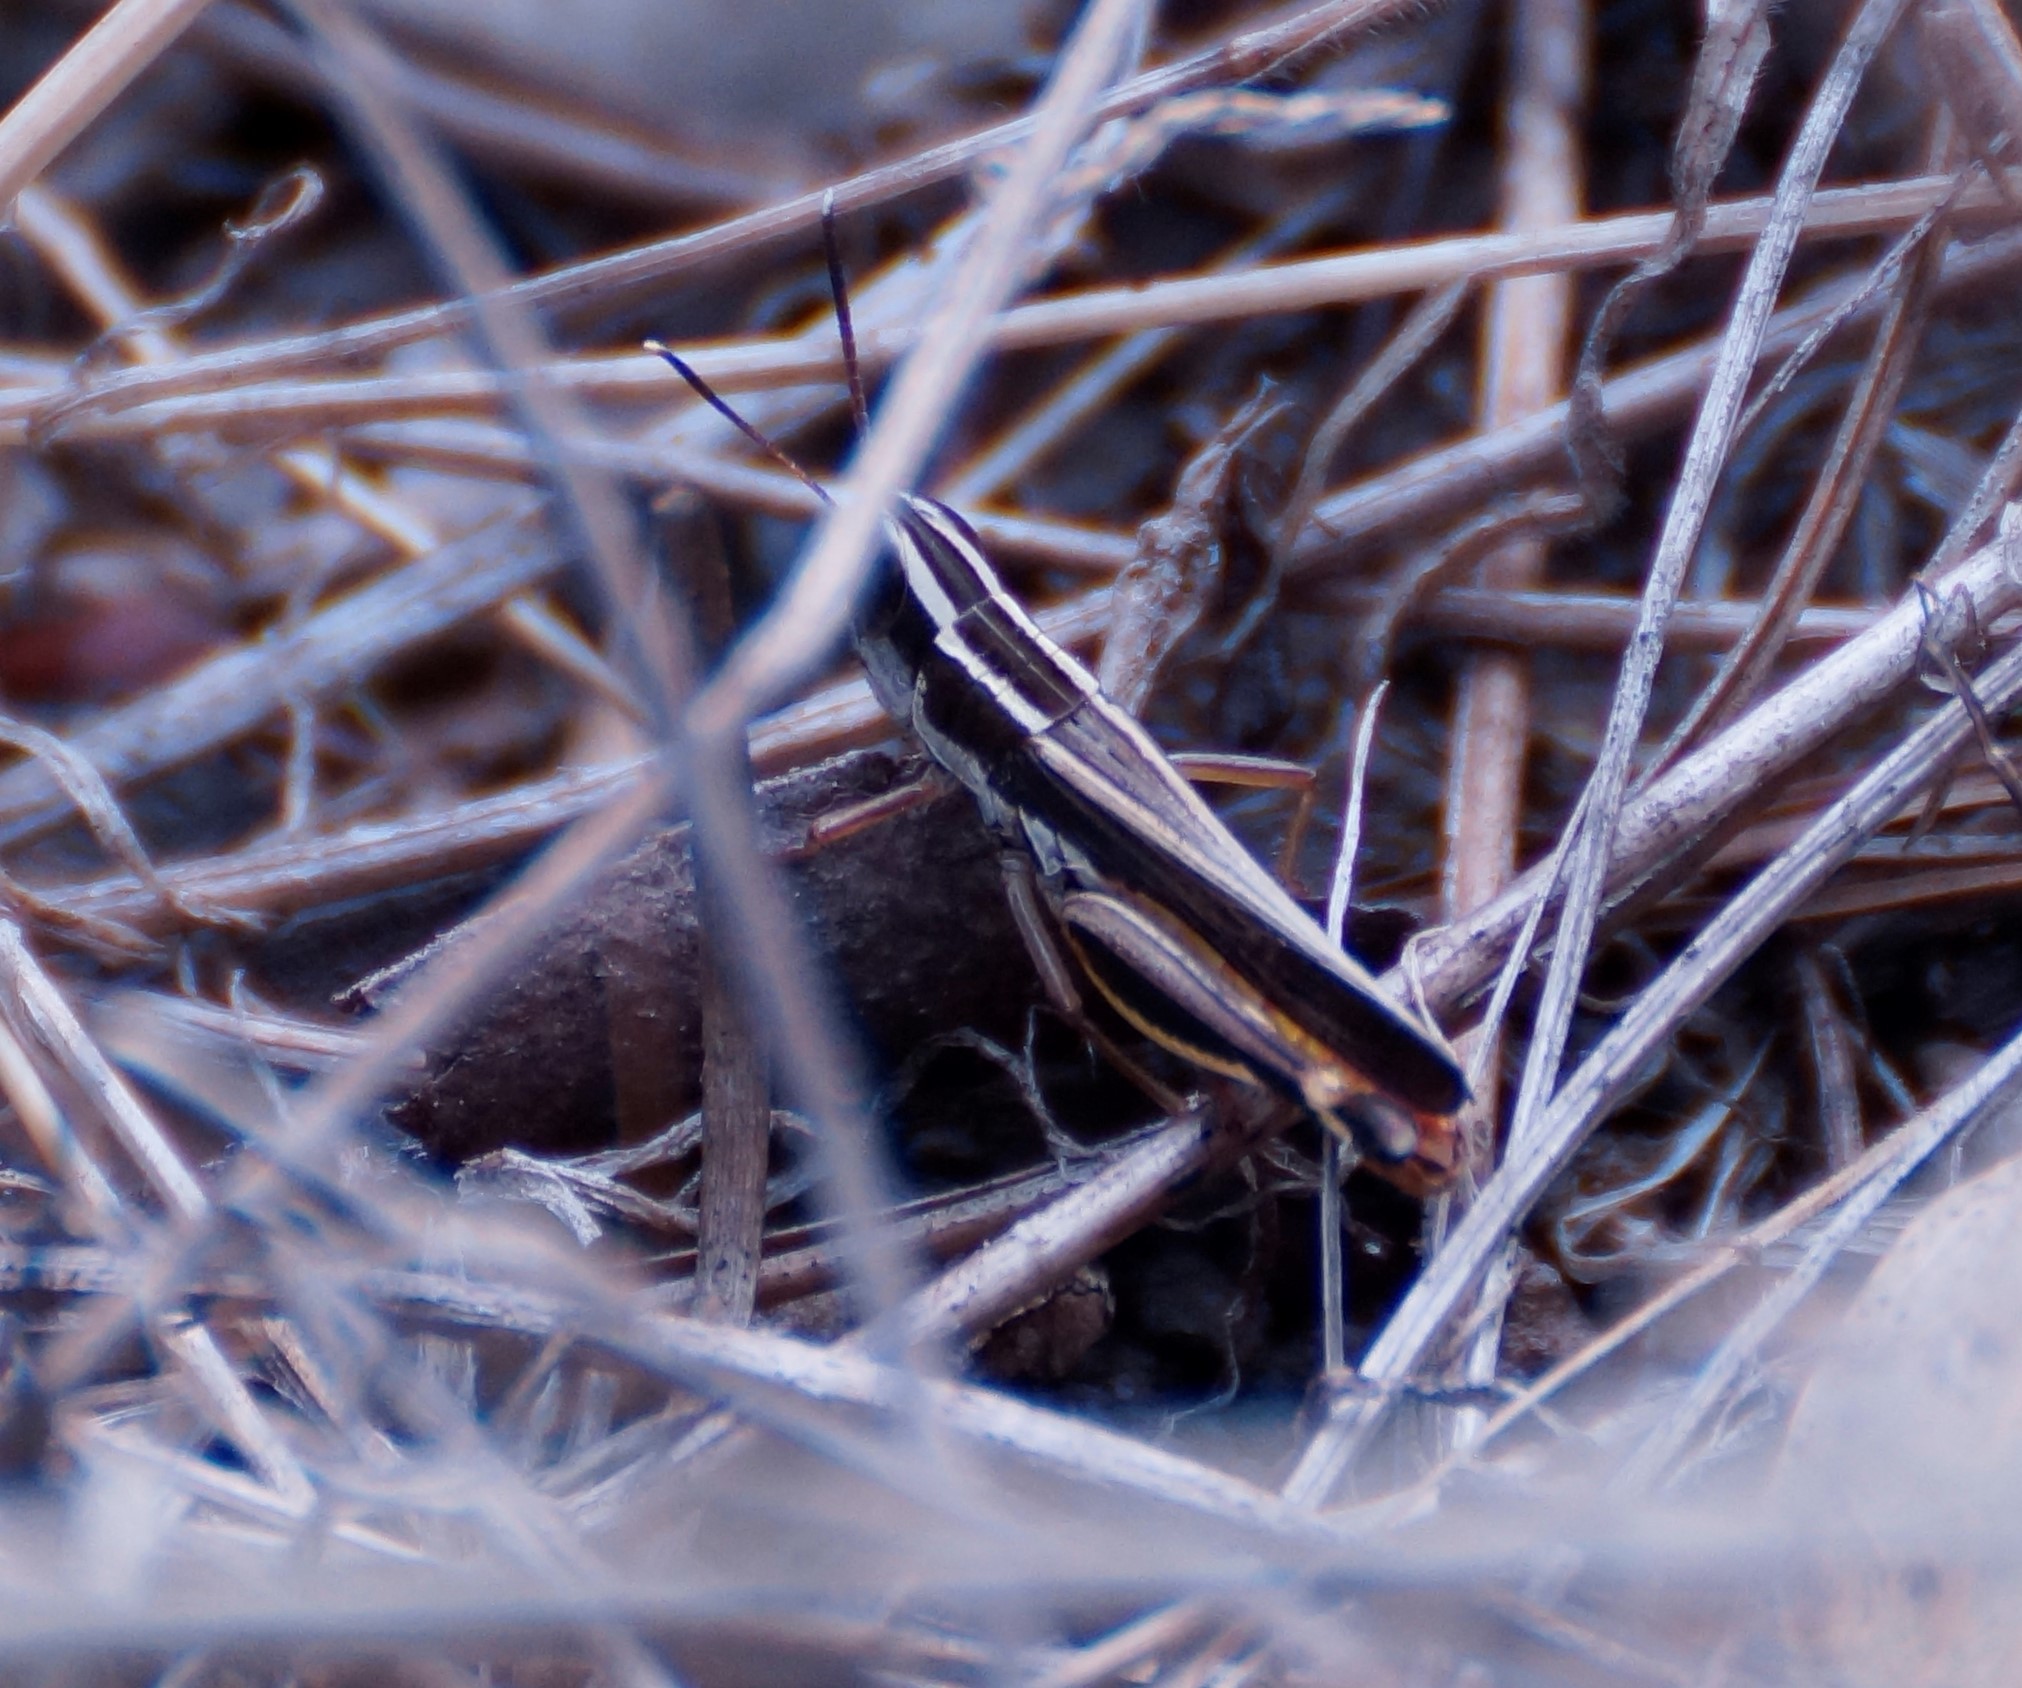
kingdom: Animalia
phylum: Arthropoda
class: Insecta
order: Orthoptera
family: Acrididae
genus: Macrotona
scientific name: Macrotona australis
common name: Common macrotona
